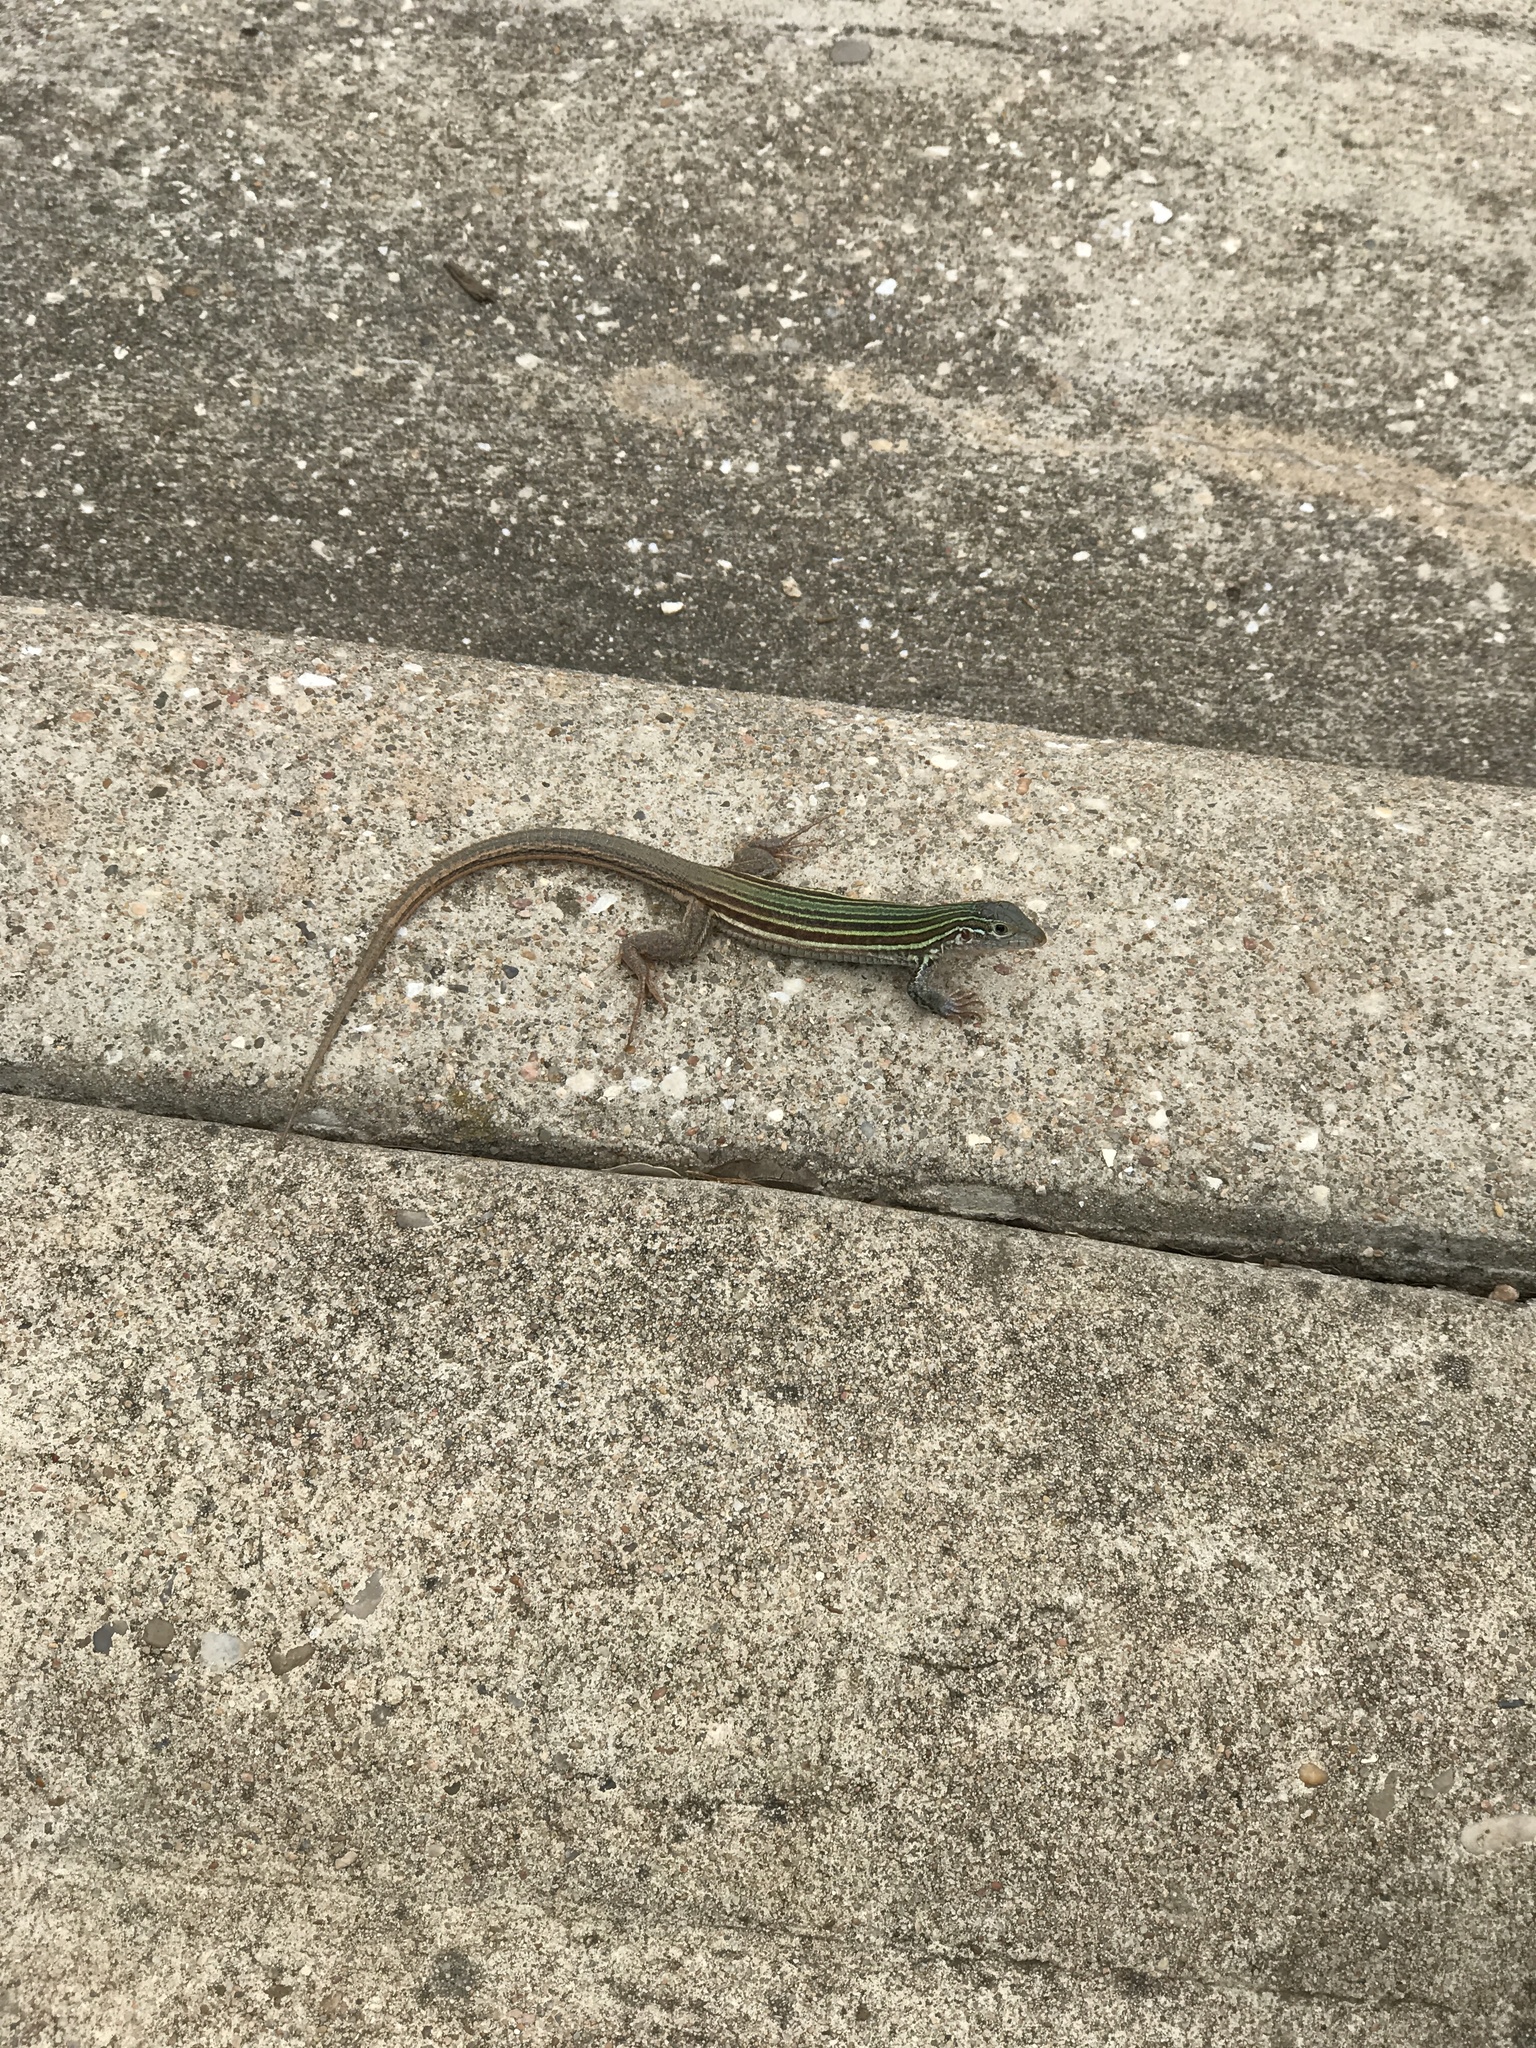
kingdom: Animalia
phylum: Chordata
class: Squamata
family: Teiidae
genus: Aspidoscelis
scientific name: Aspidoscelis gularis
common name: Eastern spotted whiptail
